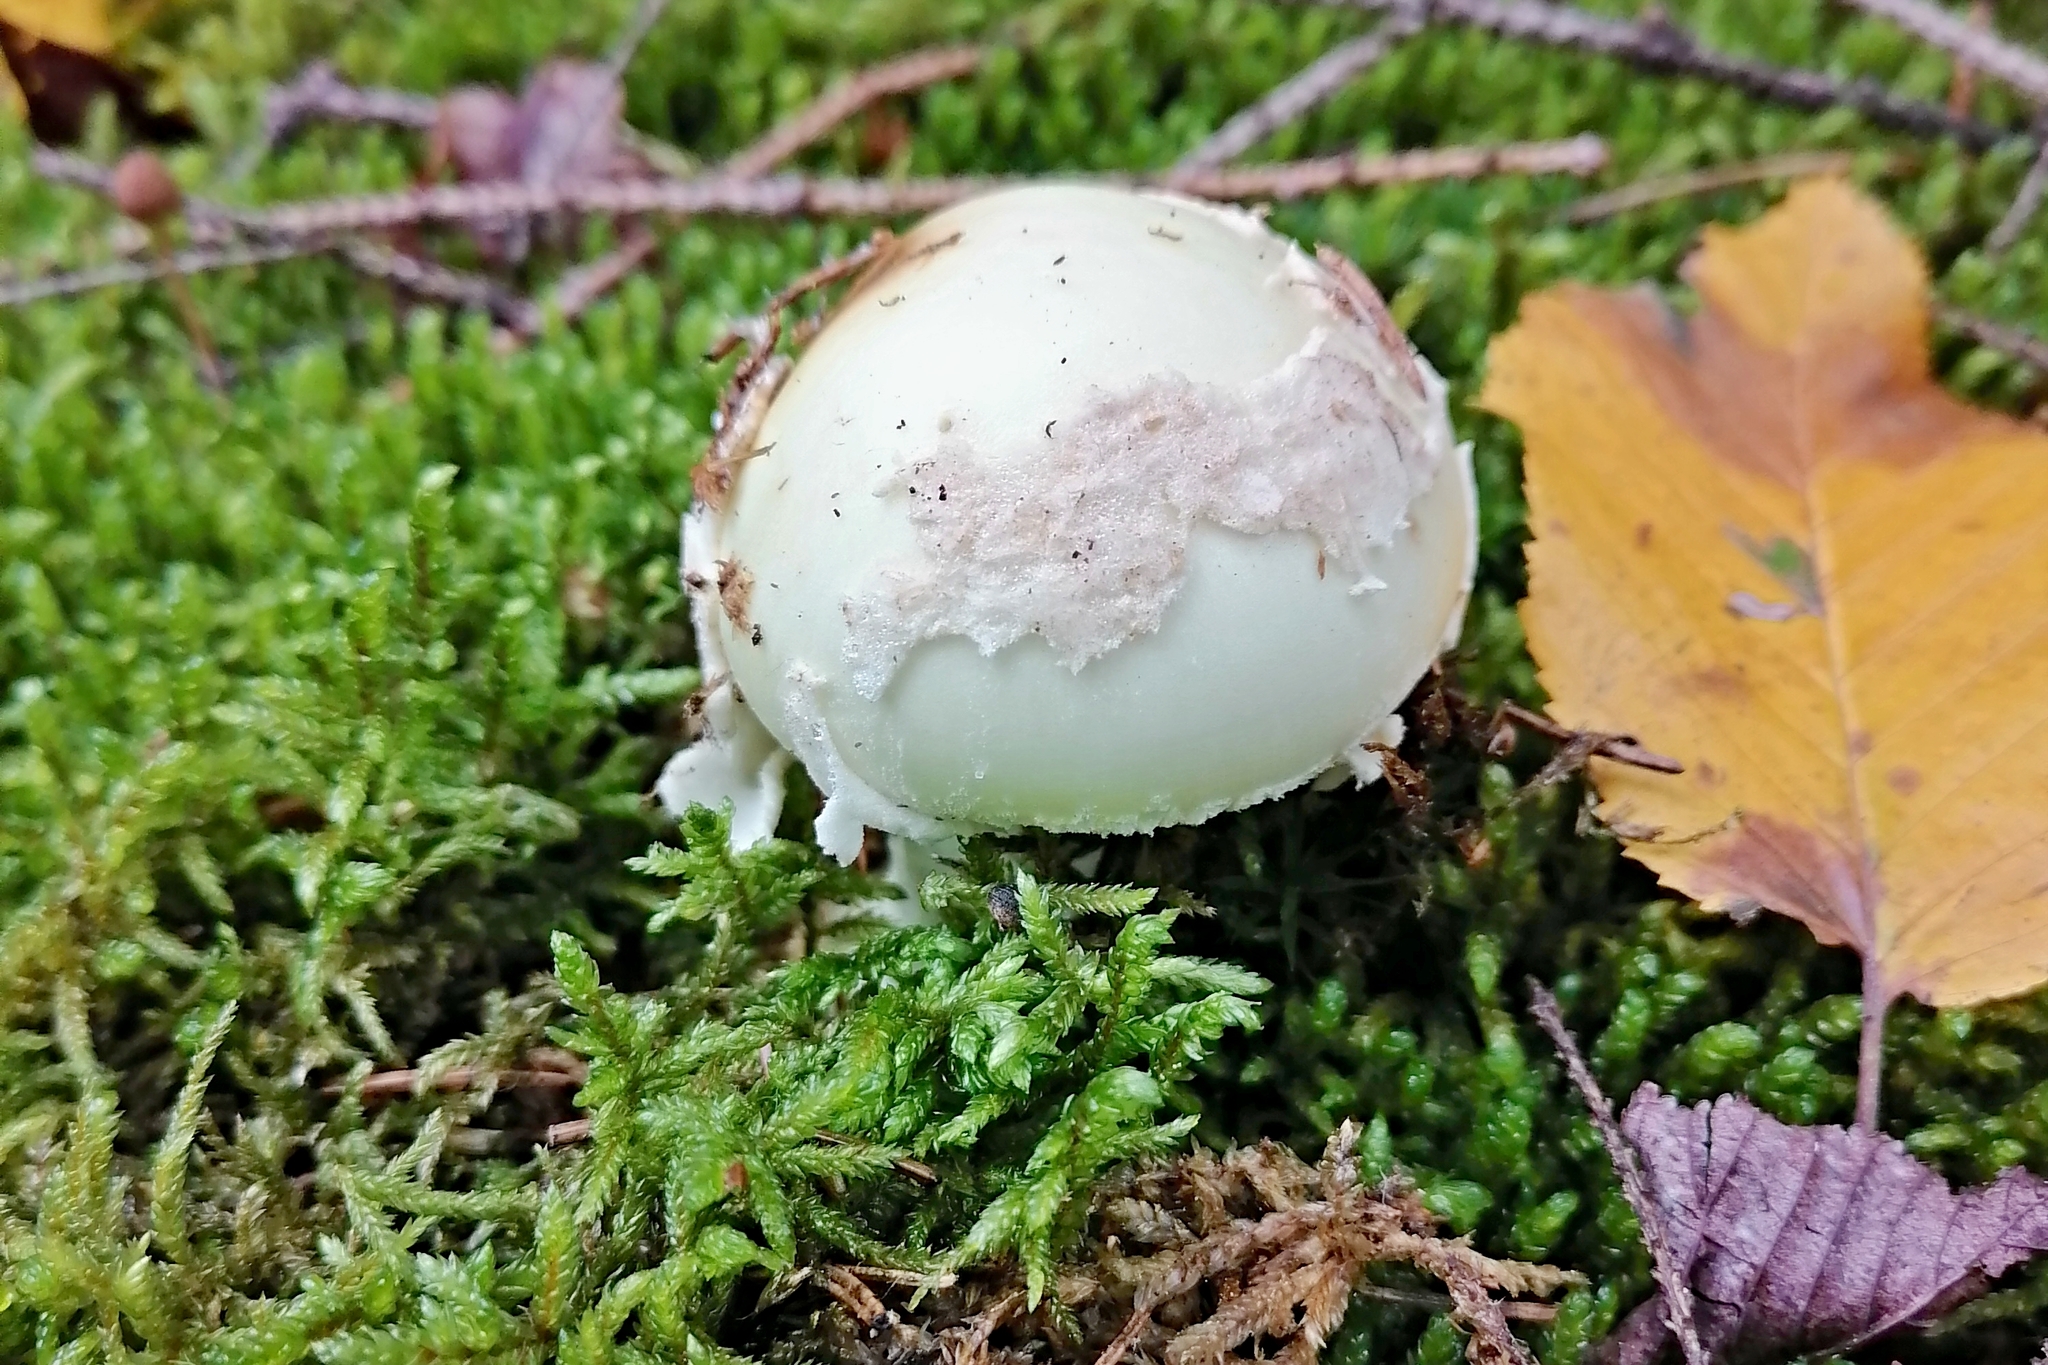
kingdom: Fungi
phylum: Basidiomycota
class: Agaricomycetes
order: Agaricales
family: Amanitaceae
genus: Amanita
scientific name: Amanita citrina
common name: False death-cap
